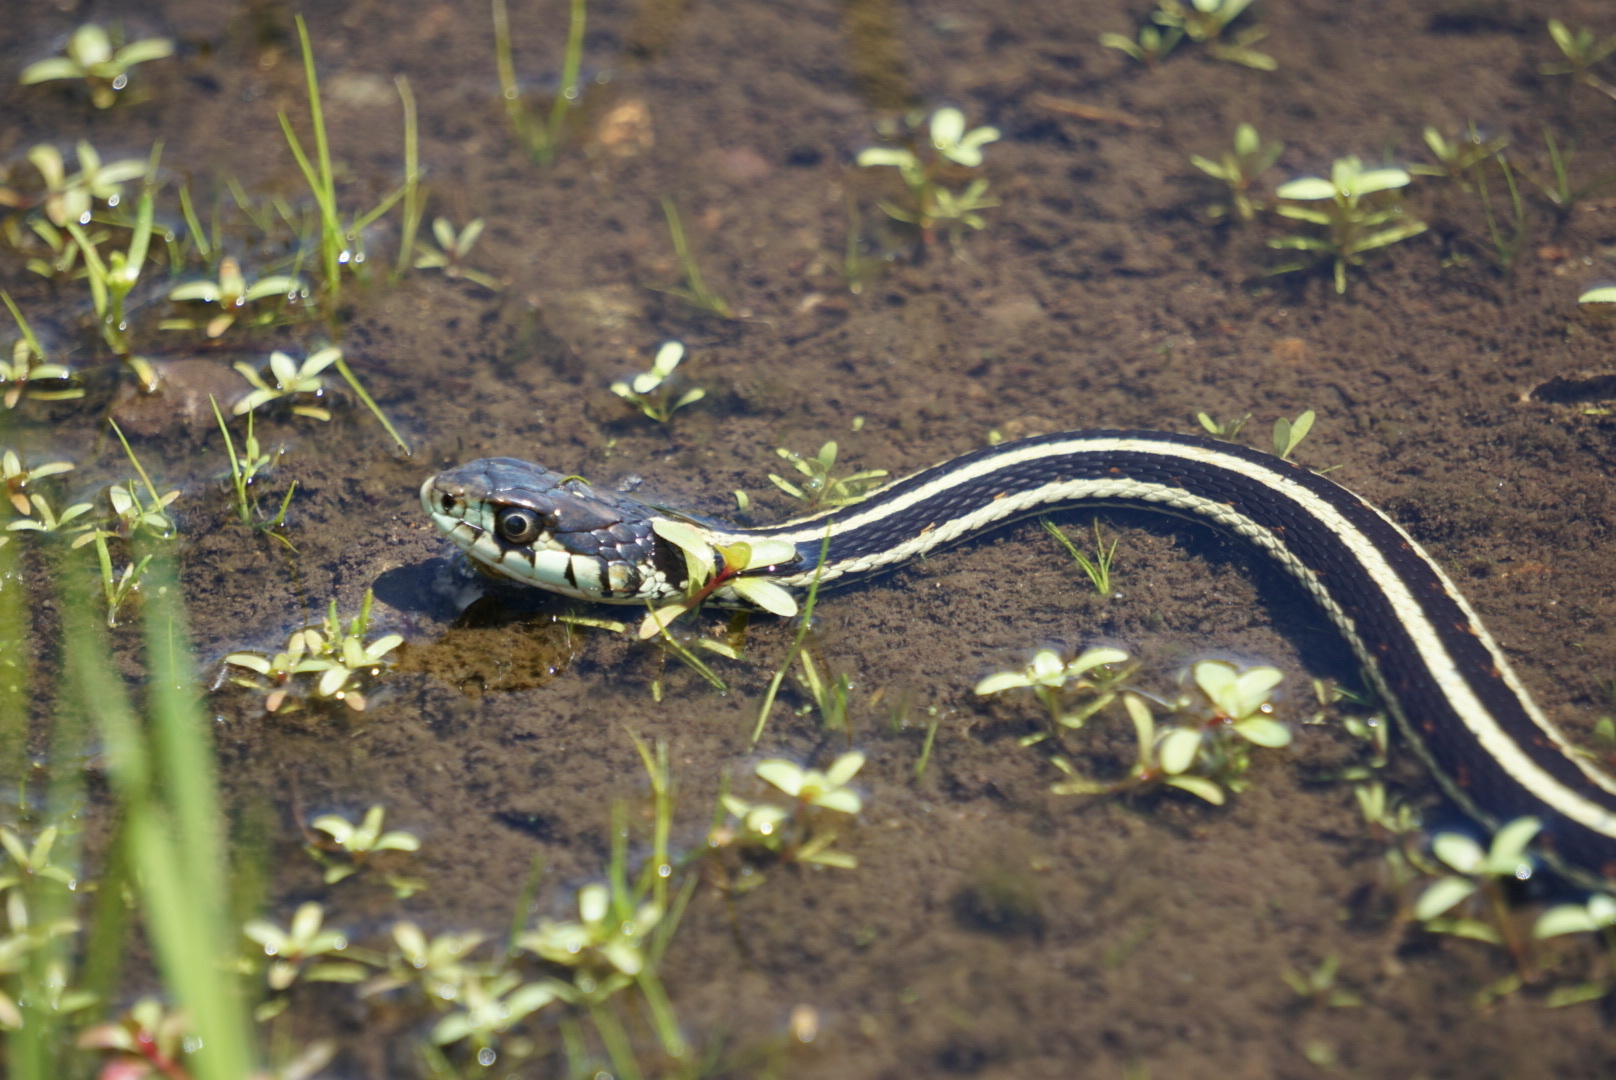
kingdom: Animalia
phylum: Chordata
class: Squamata
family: Colubridae
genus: Thamnophis
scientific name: Thamnophis sirtalis
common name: Common garter snake
